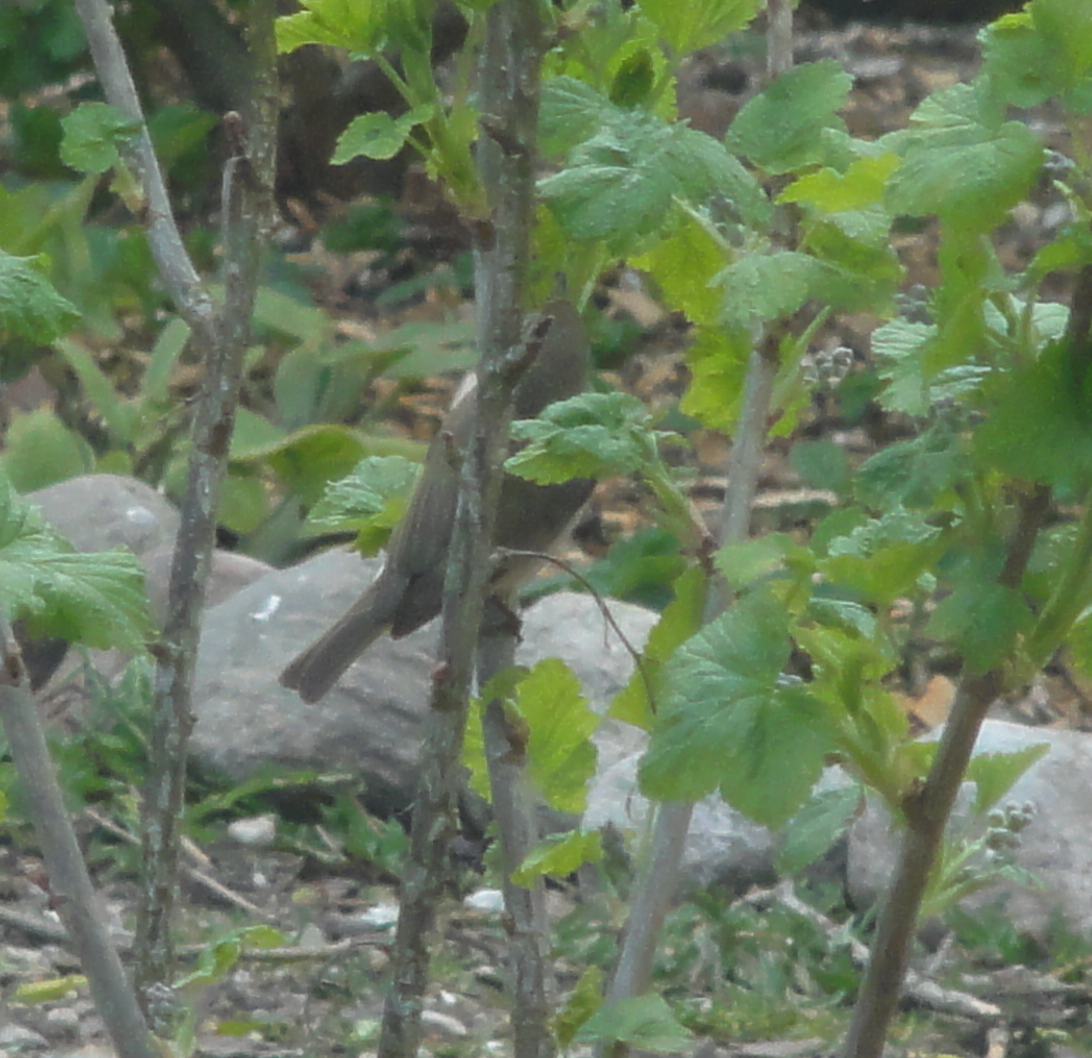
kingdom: Animalia
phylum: Chordata
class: Aves
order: Passeriformes
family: Phylloscopidae
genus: Phylloscopus
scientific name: Phylloscopus collybita
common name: Common chiffchaff
